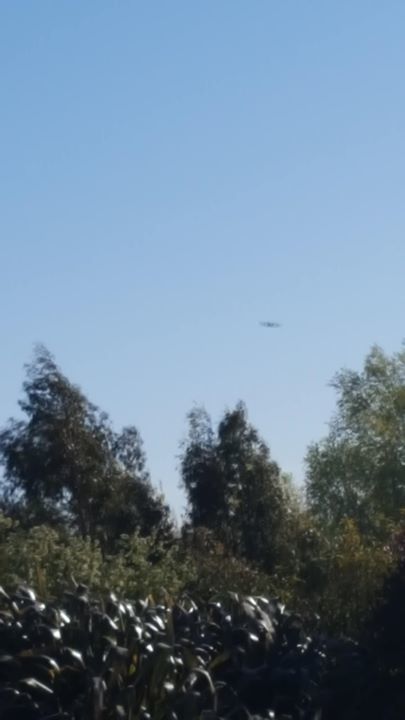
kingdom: Animalia
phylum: Chordata
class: Aves
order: Accipitriformes
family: Accipitridae
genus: Circus
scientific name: Circus approximans
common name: Swamp harrier
